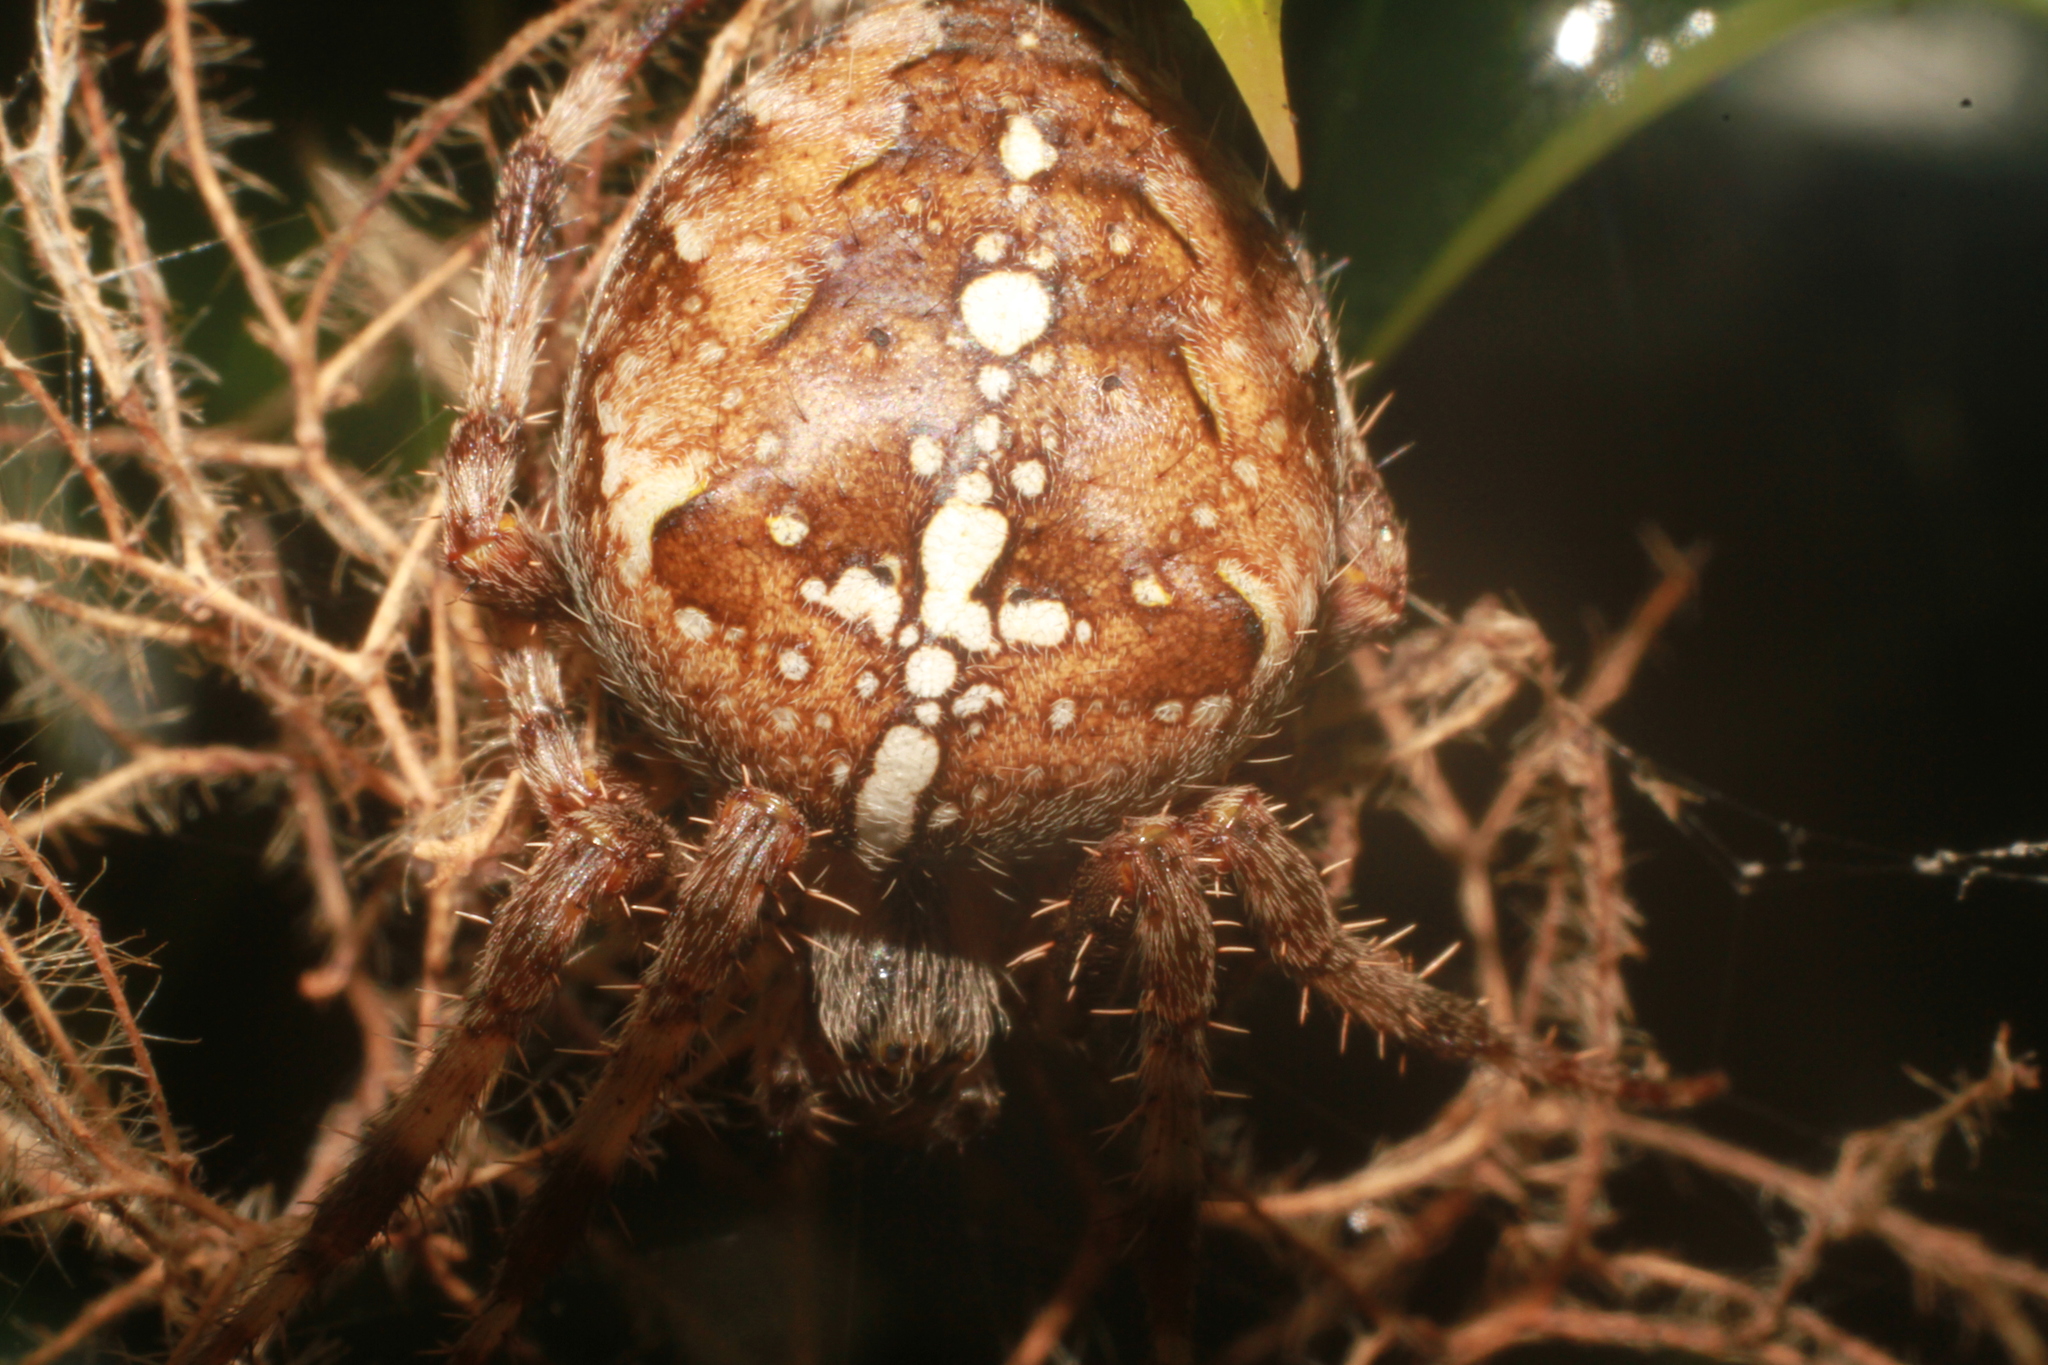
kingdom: Animalia
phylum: Arthropoda
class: Arachnida
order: Araneae
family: Araneidae
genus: Araneus
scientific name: Araneus diadematus
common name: Cross orbweaver
